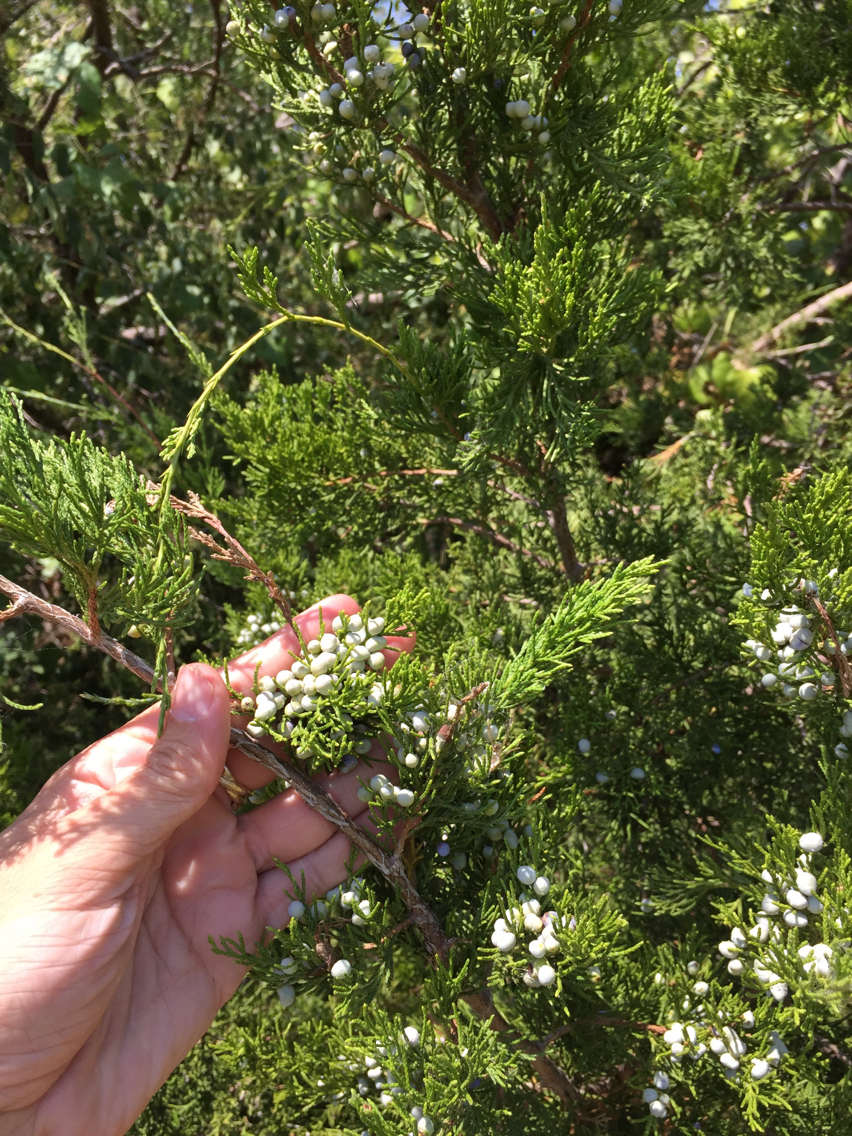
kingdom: Plantae
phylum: Tracheophyta
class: Pinopsida
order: Pinales
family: Cupressaceae
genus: Juniperus
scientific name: Juniperus virginiana
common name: Red juniper
